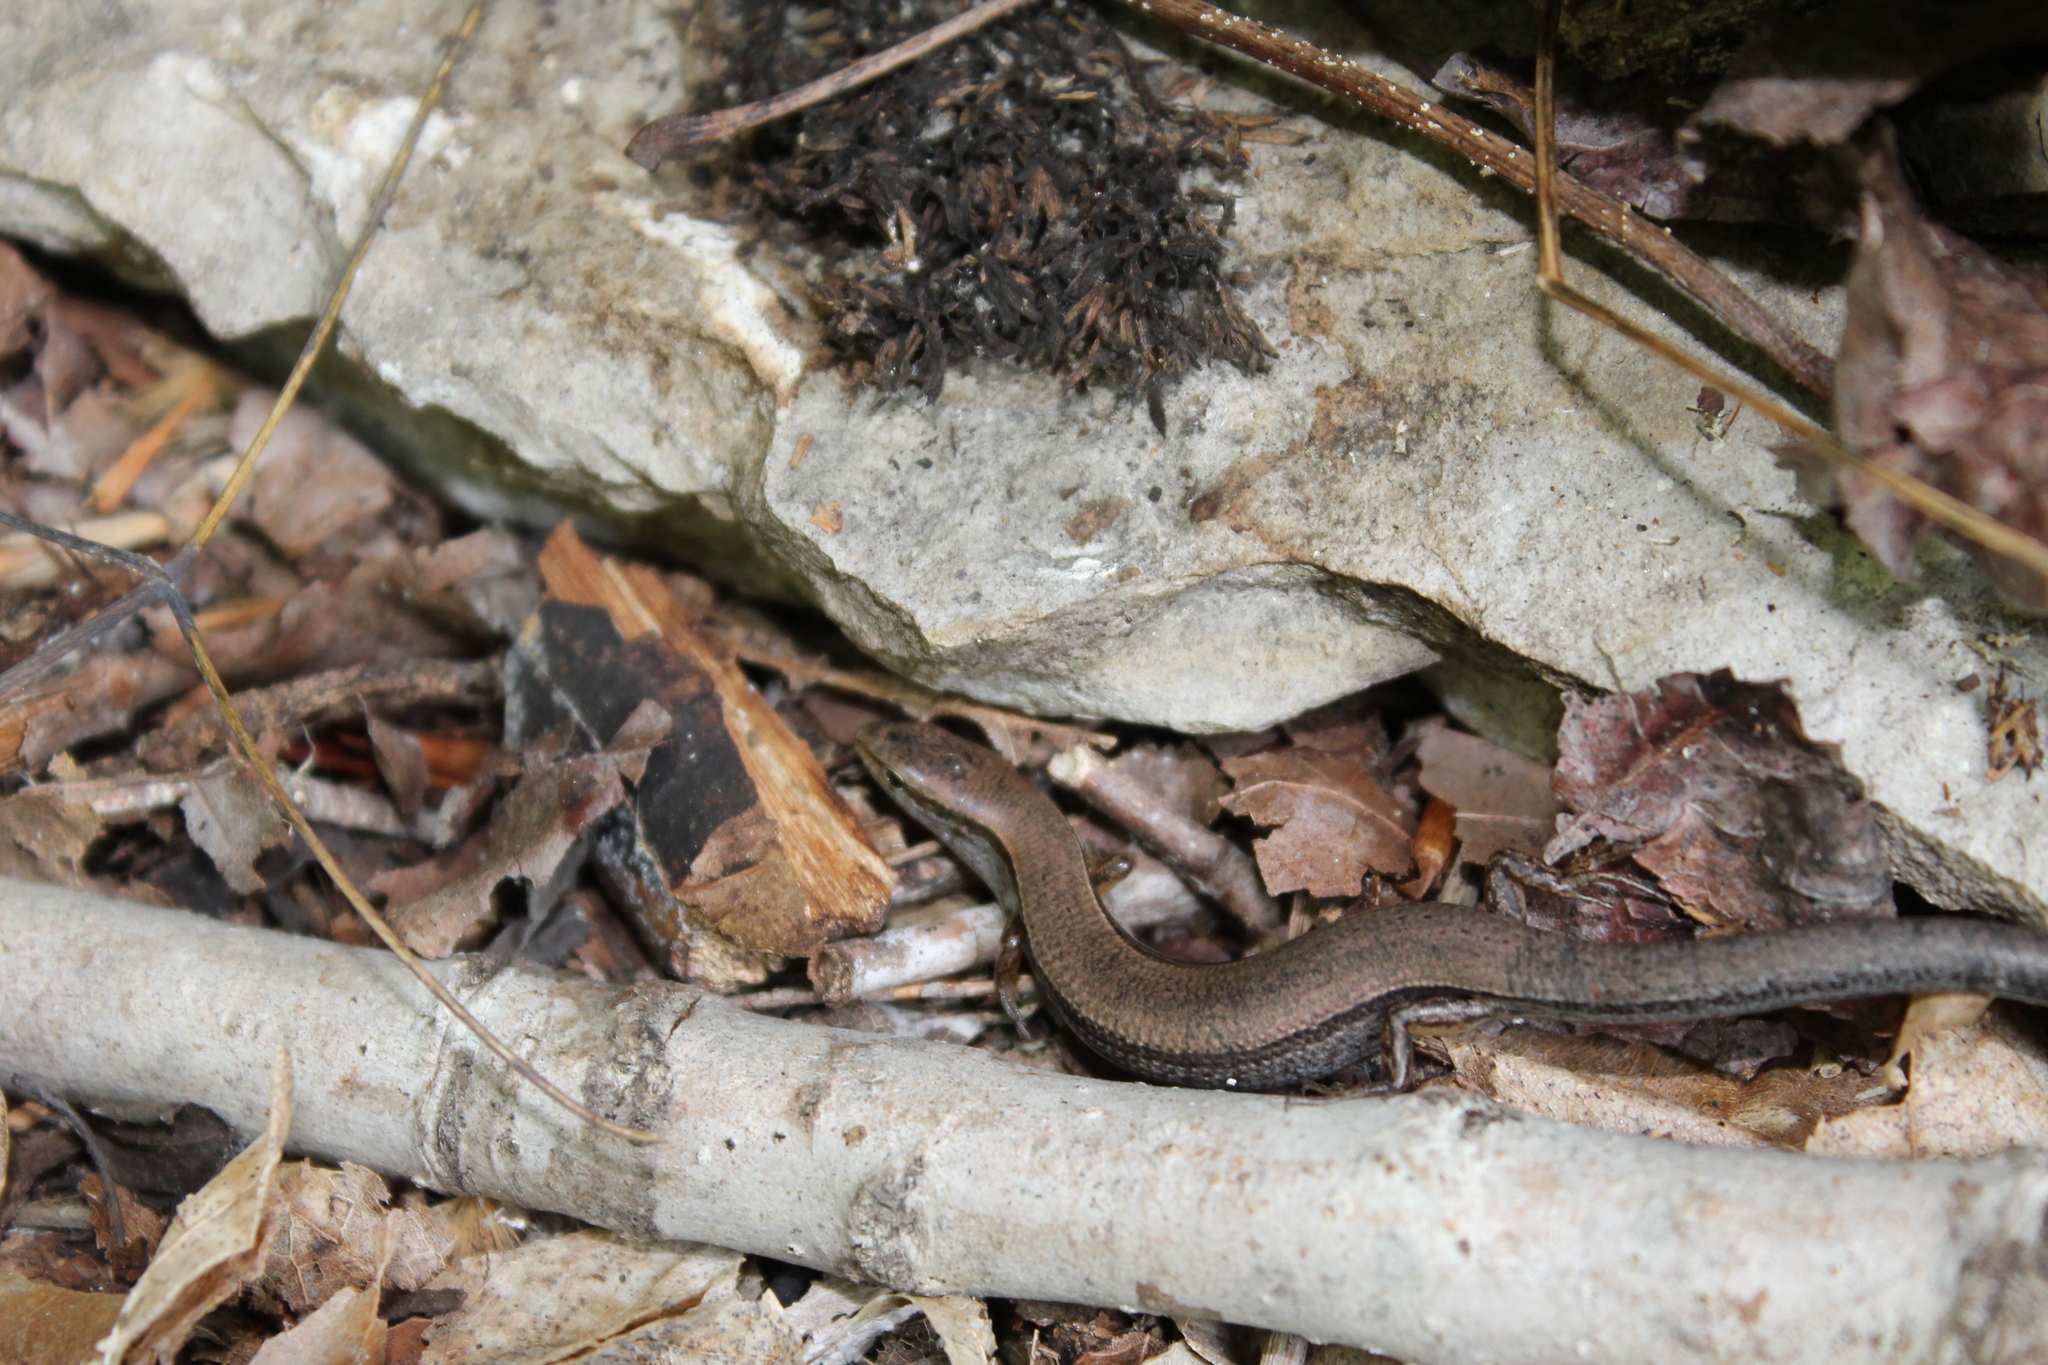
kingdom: Animalia
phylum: Chordata
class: Squamata
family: Scincidae
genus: Scincella
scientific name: Scincella lateralis
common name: Ground skink
